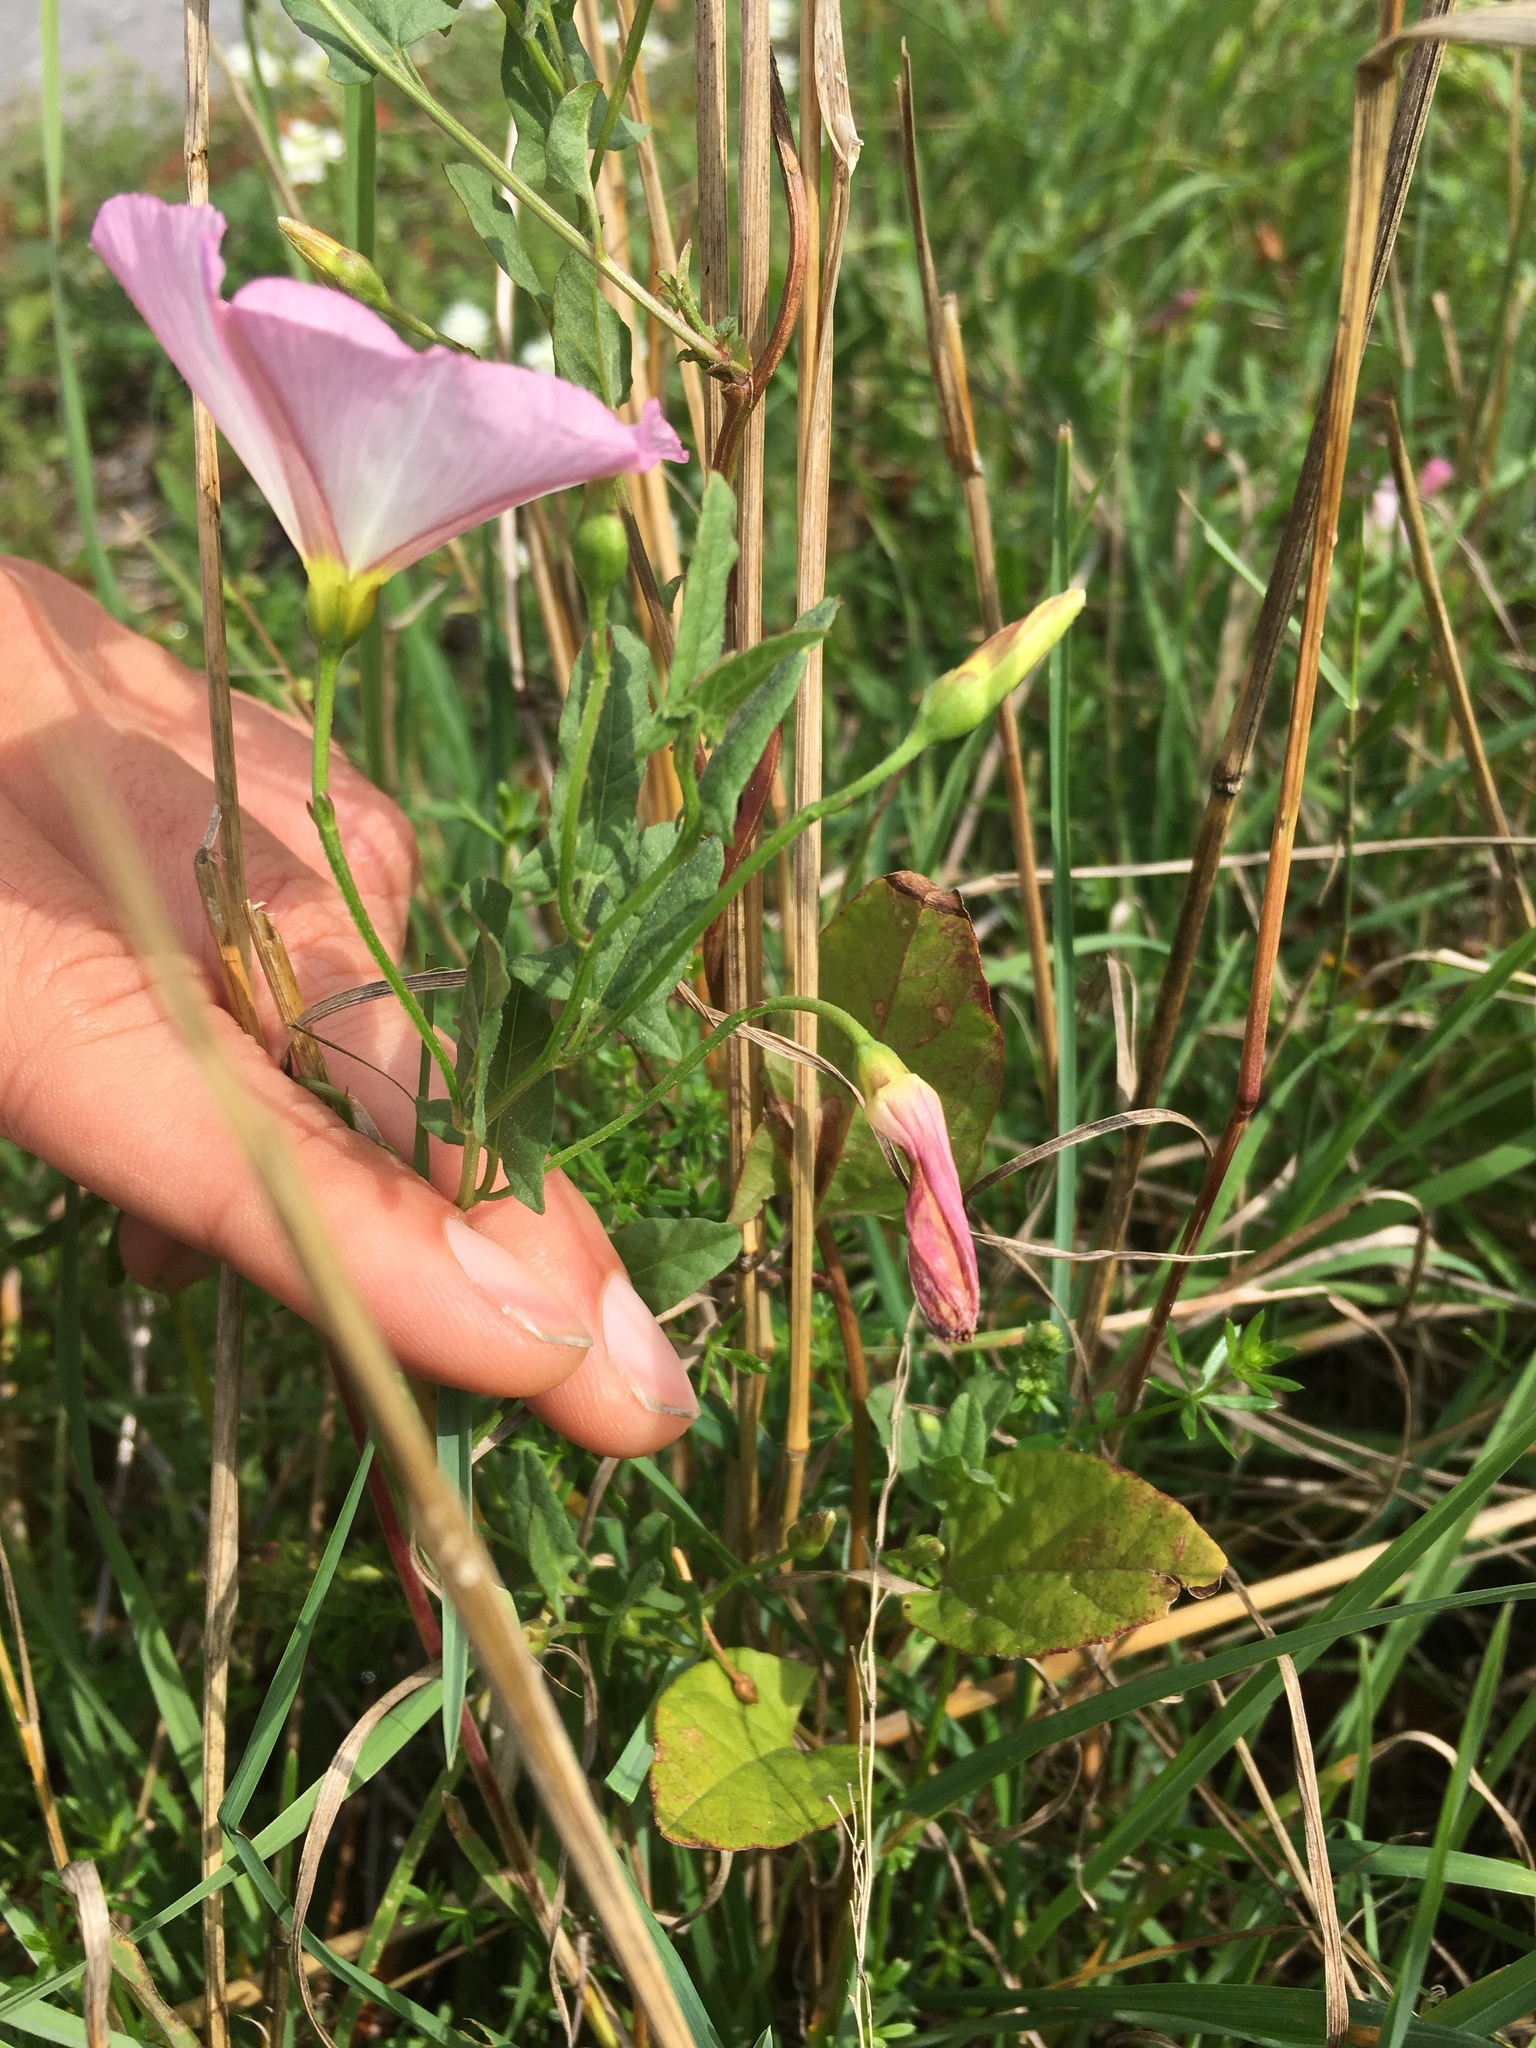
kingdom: Plantae
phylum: Tracheophyta
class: Magnoliopsida
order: Solanales
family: Convolvulaceae
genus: Convolvulus
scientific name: Convolvulus arvensis
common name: Field bindweed
